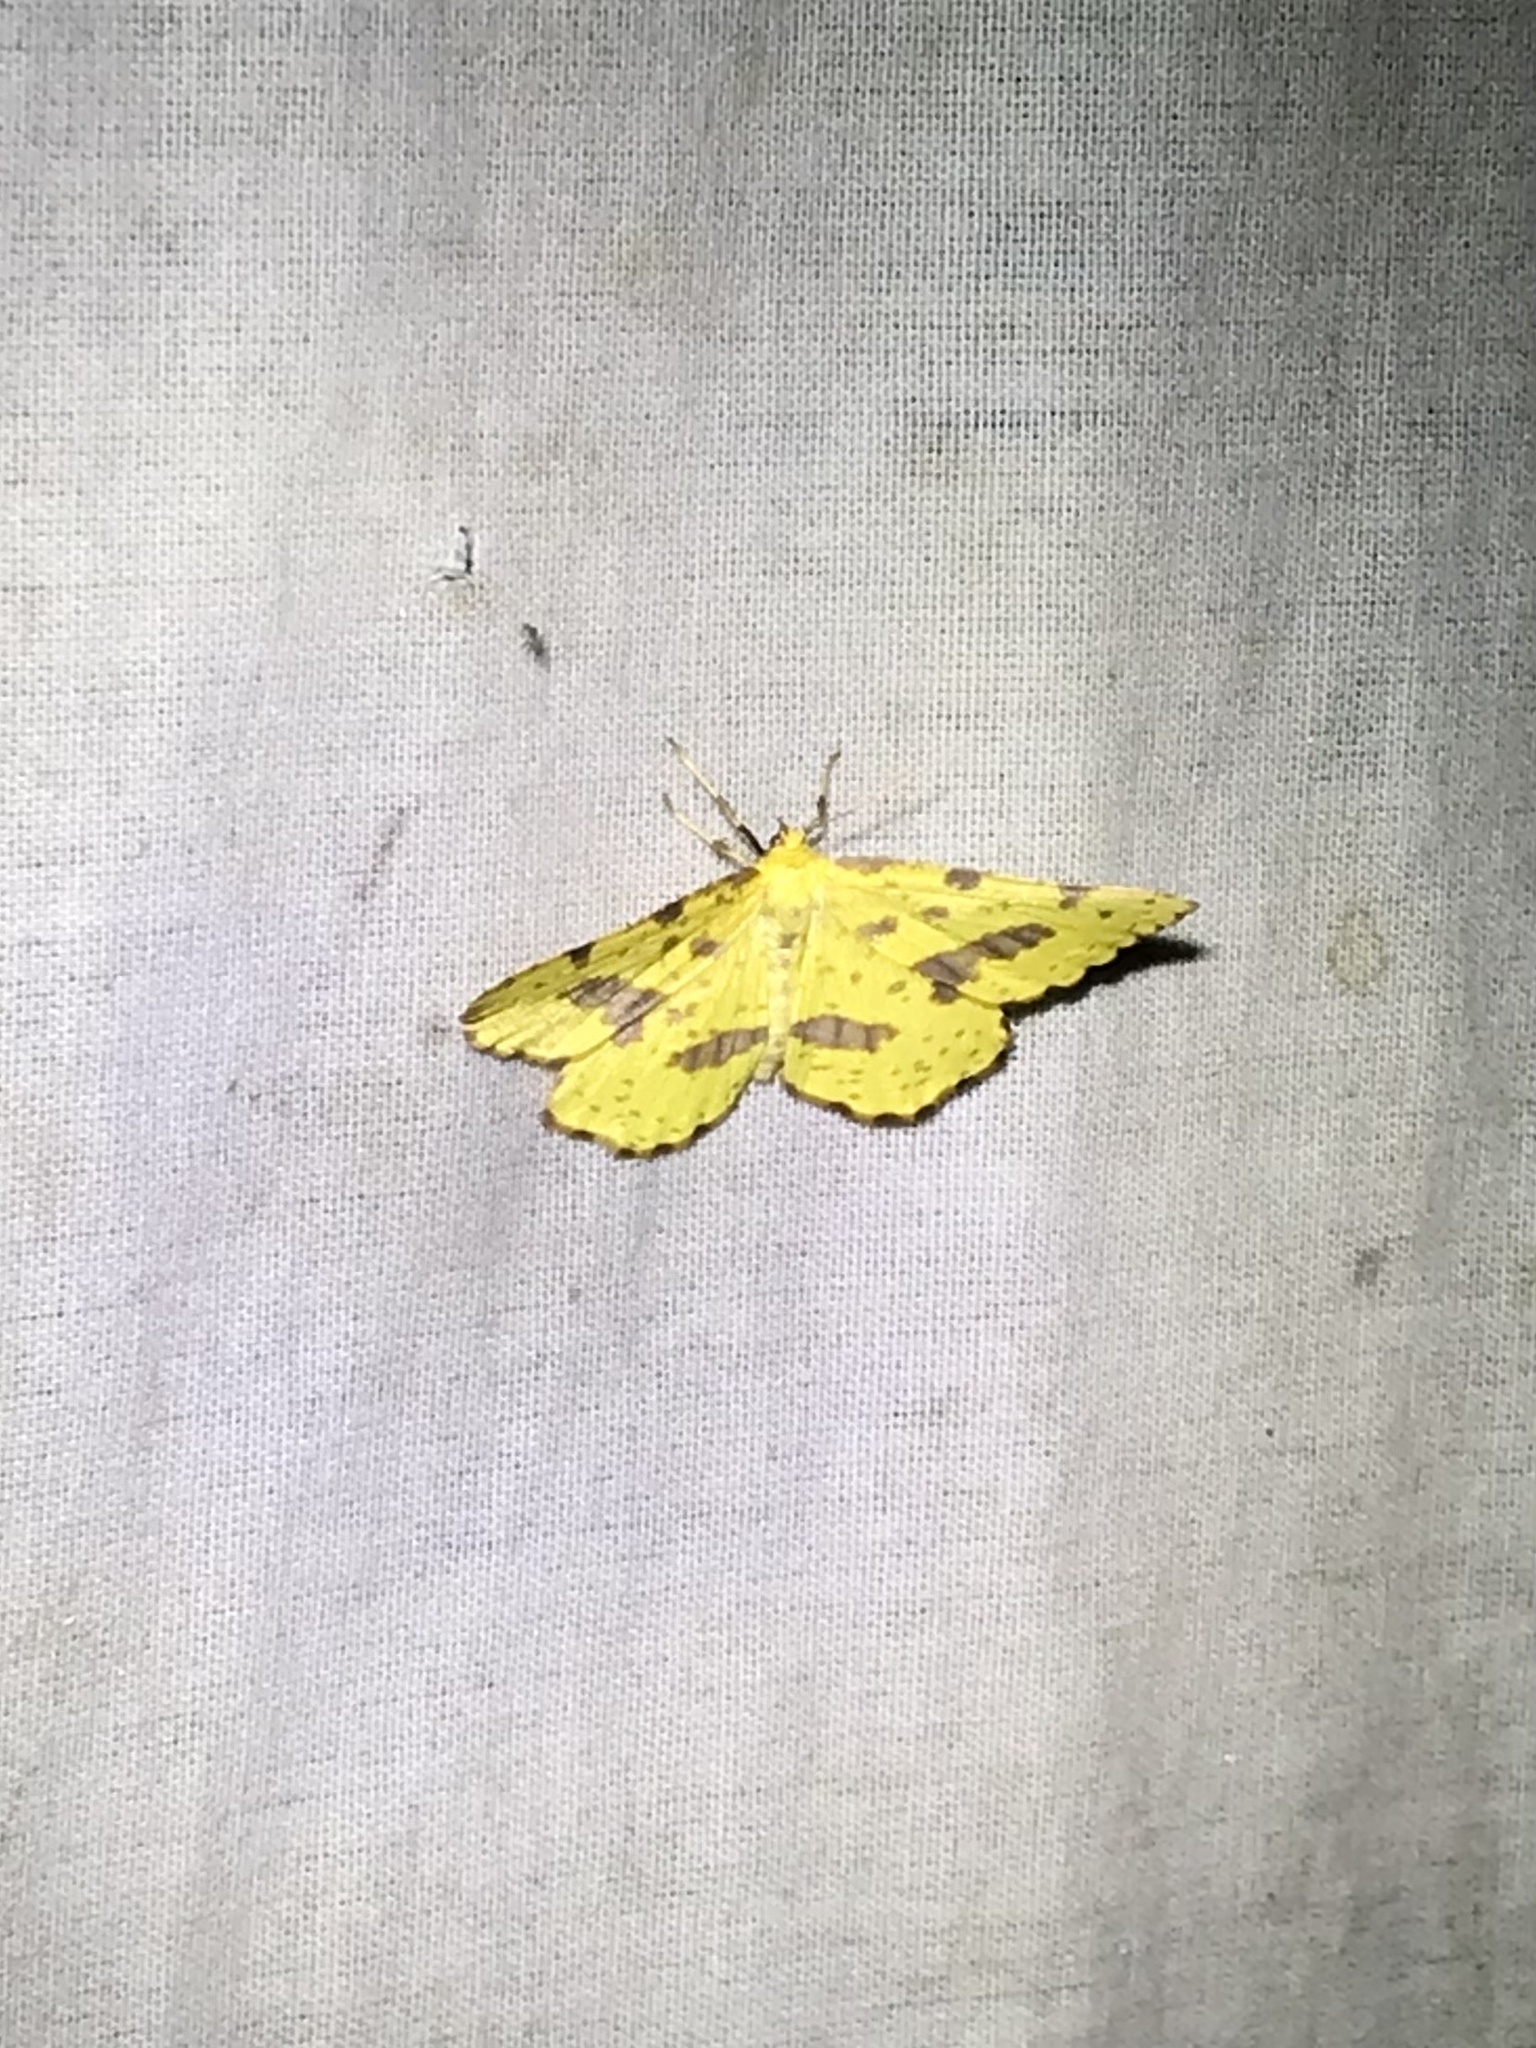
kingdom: Animalia
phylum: Arthropoda
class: Insecta
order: Lepidoptera
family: Geometridae
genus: Xanthotype
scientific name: Xanthotype
